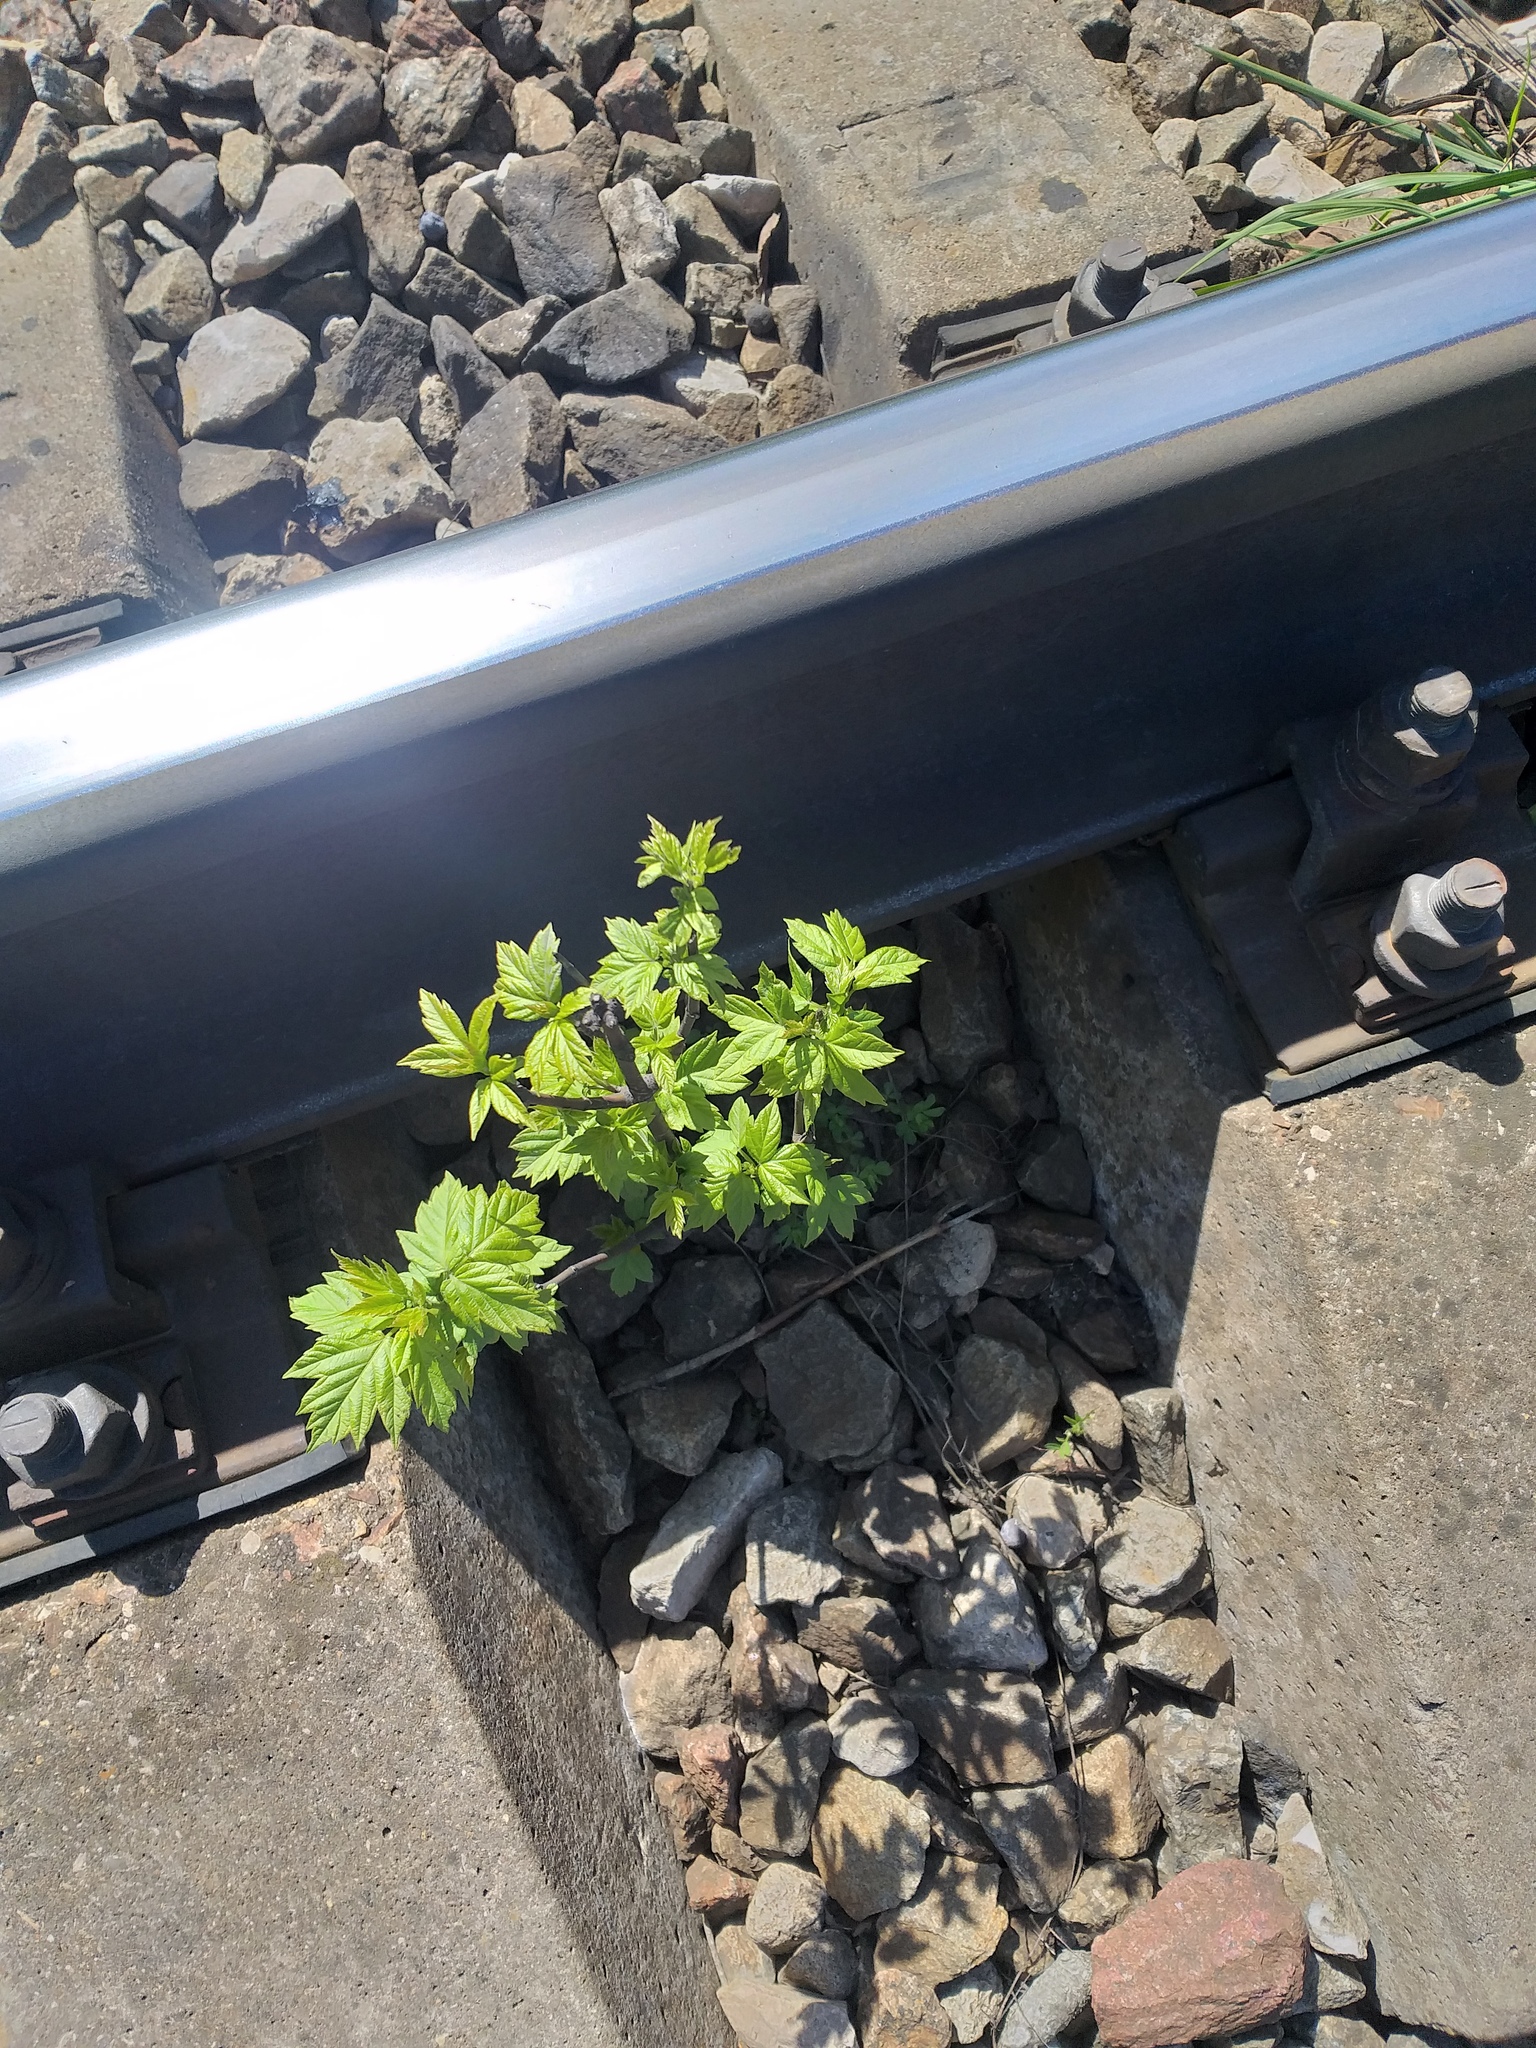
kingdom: Plantae
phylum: Tracheophyta
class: Magnoliopsida
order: Sapindales
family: Sapindaceae
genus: Acer
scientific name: Acer negundo
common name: Ashleaf maple
